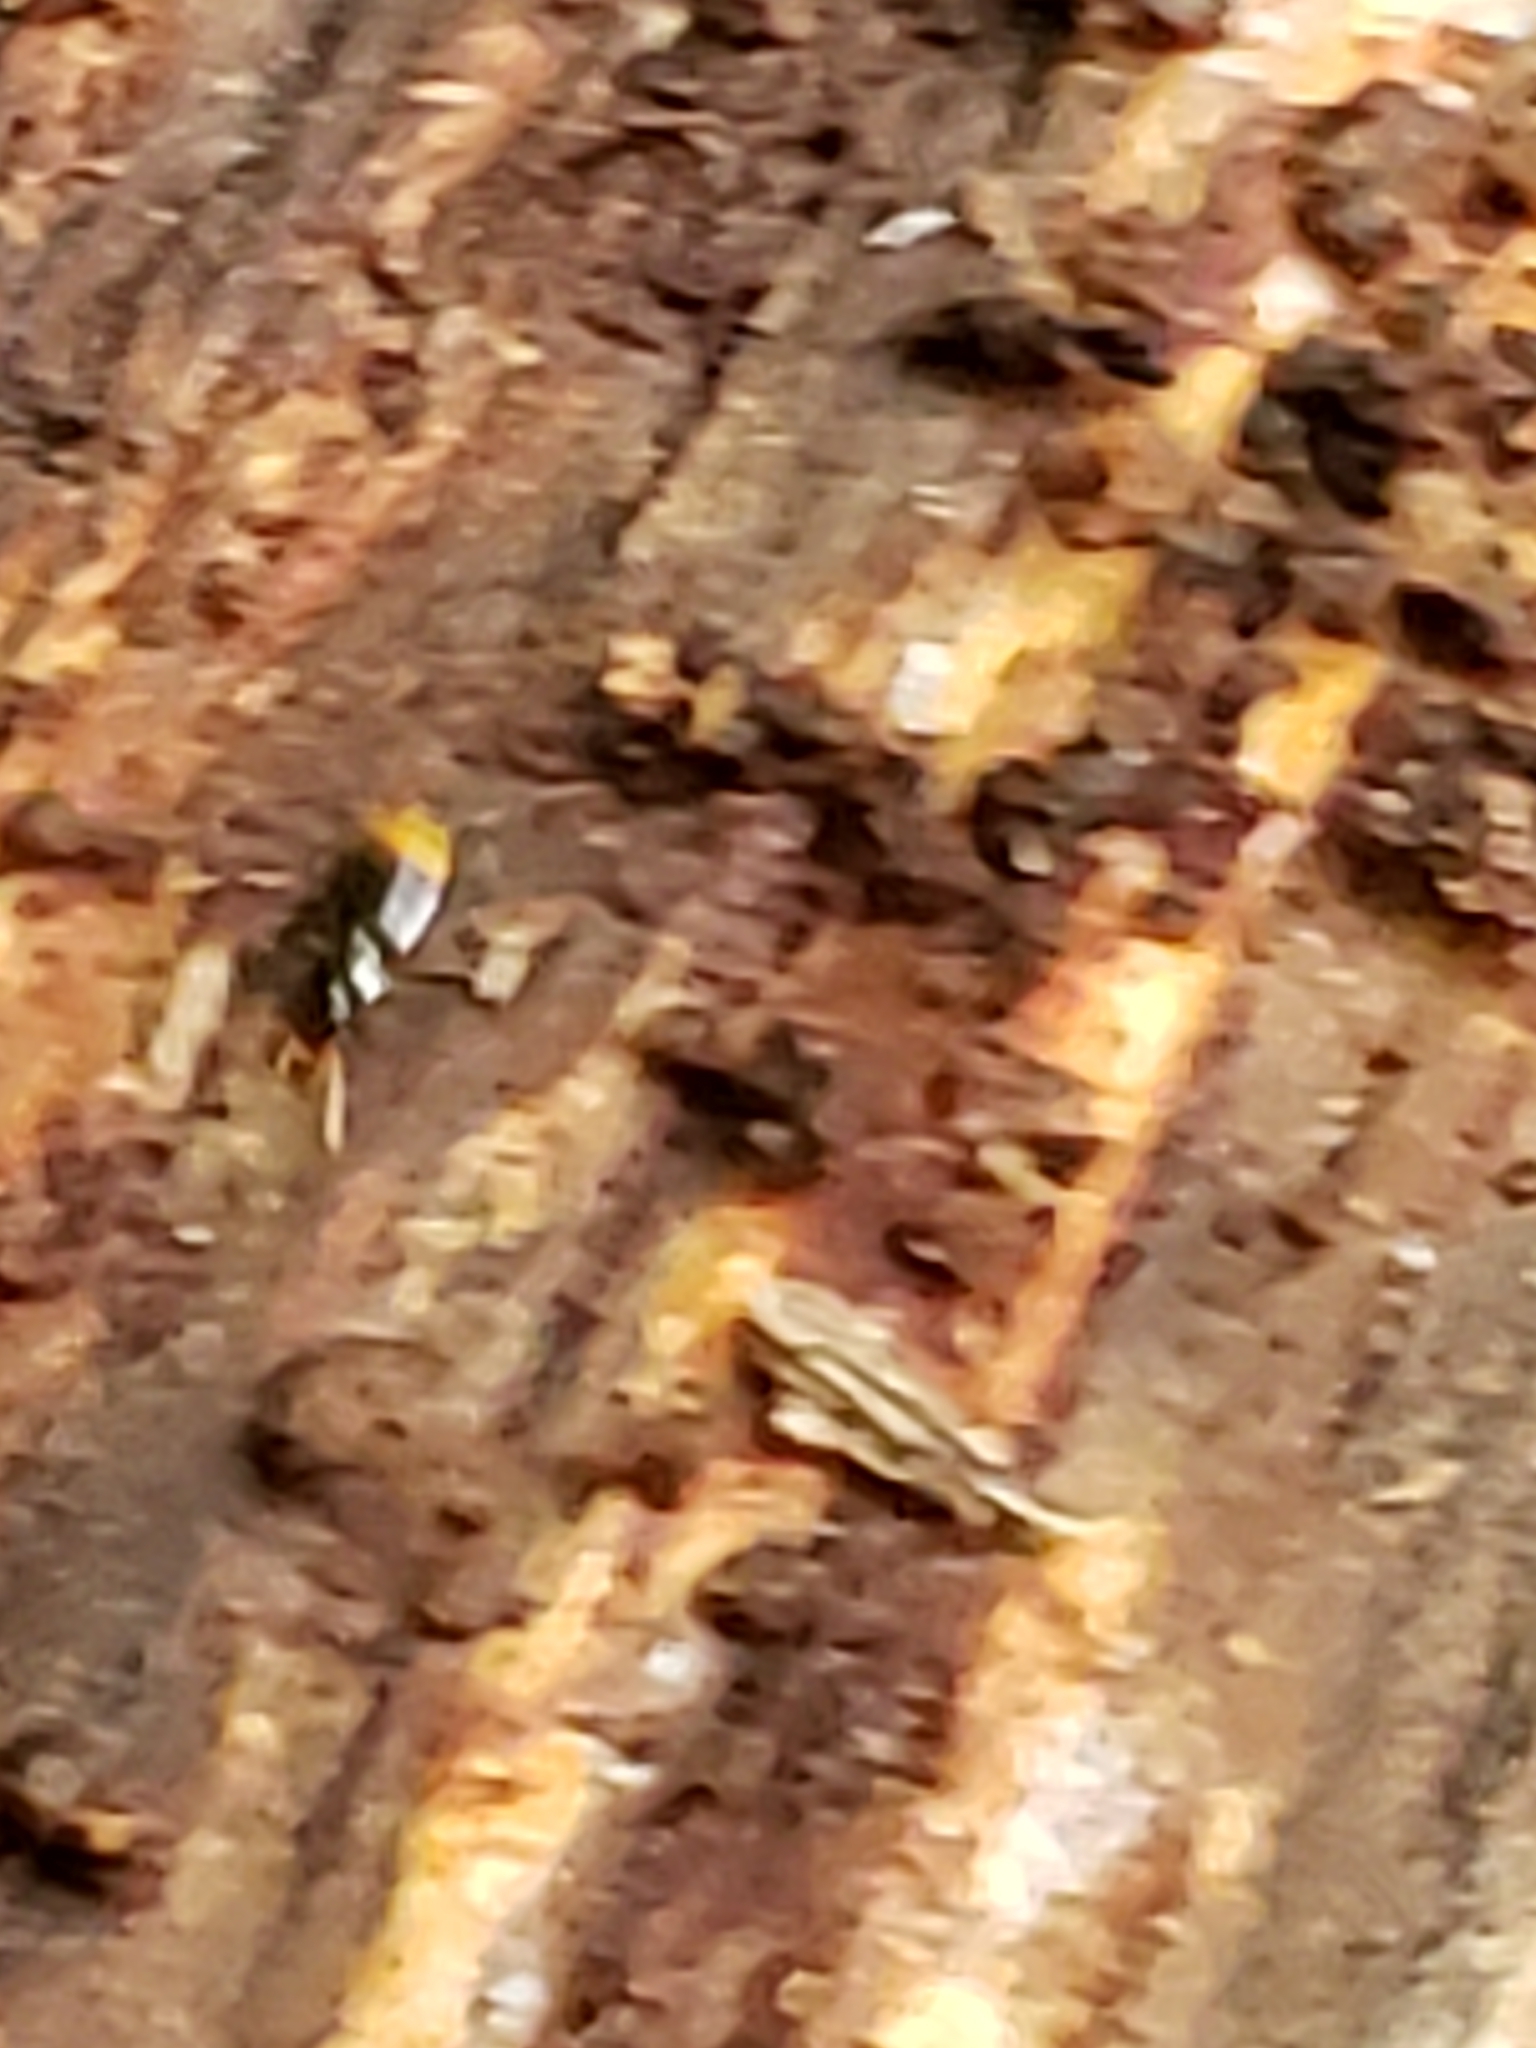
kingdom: Animalia
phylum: Arthropoda
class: Insecta
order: Coleoptera
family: Carabidae
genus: Mioptachys
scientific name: Mioptachys flavicauda
